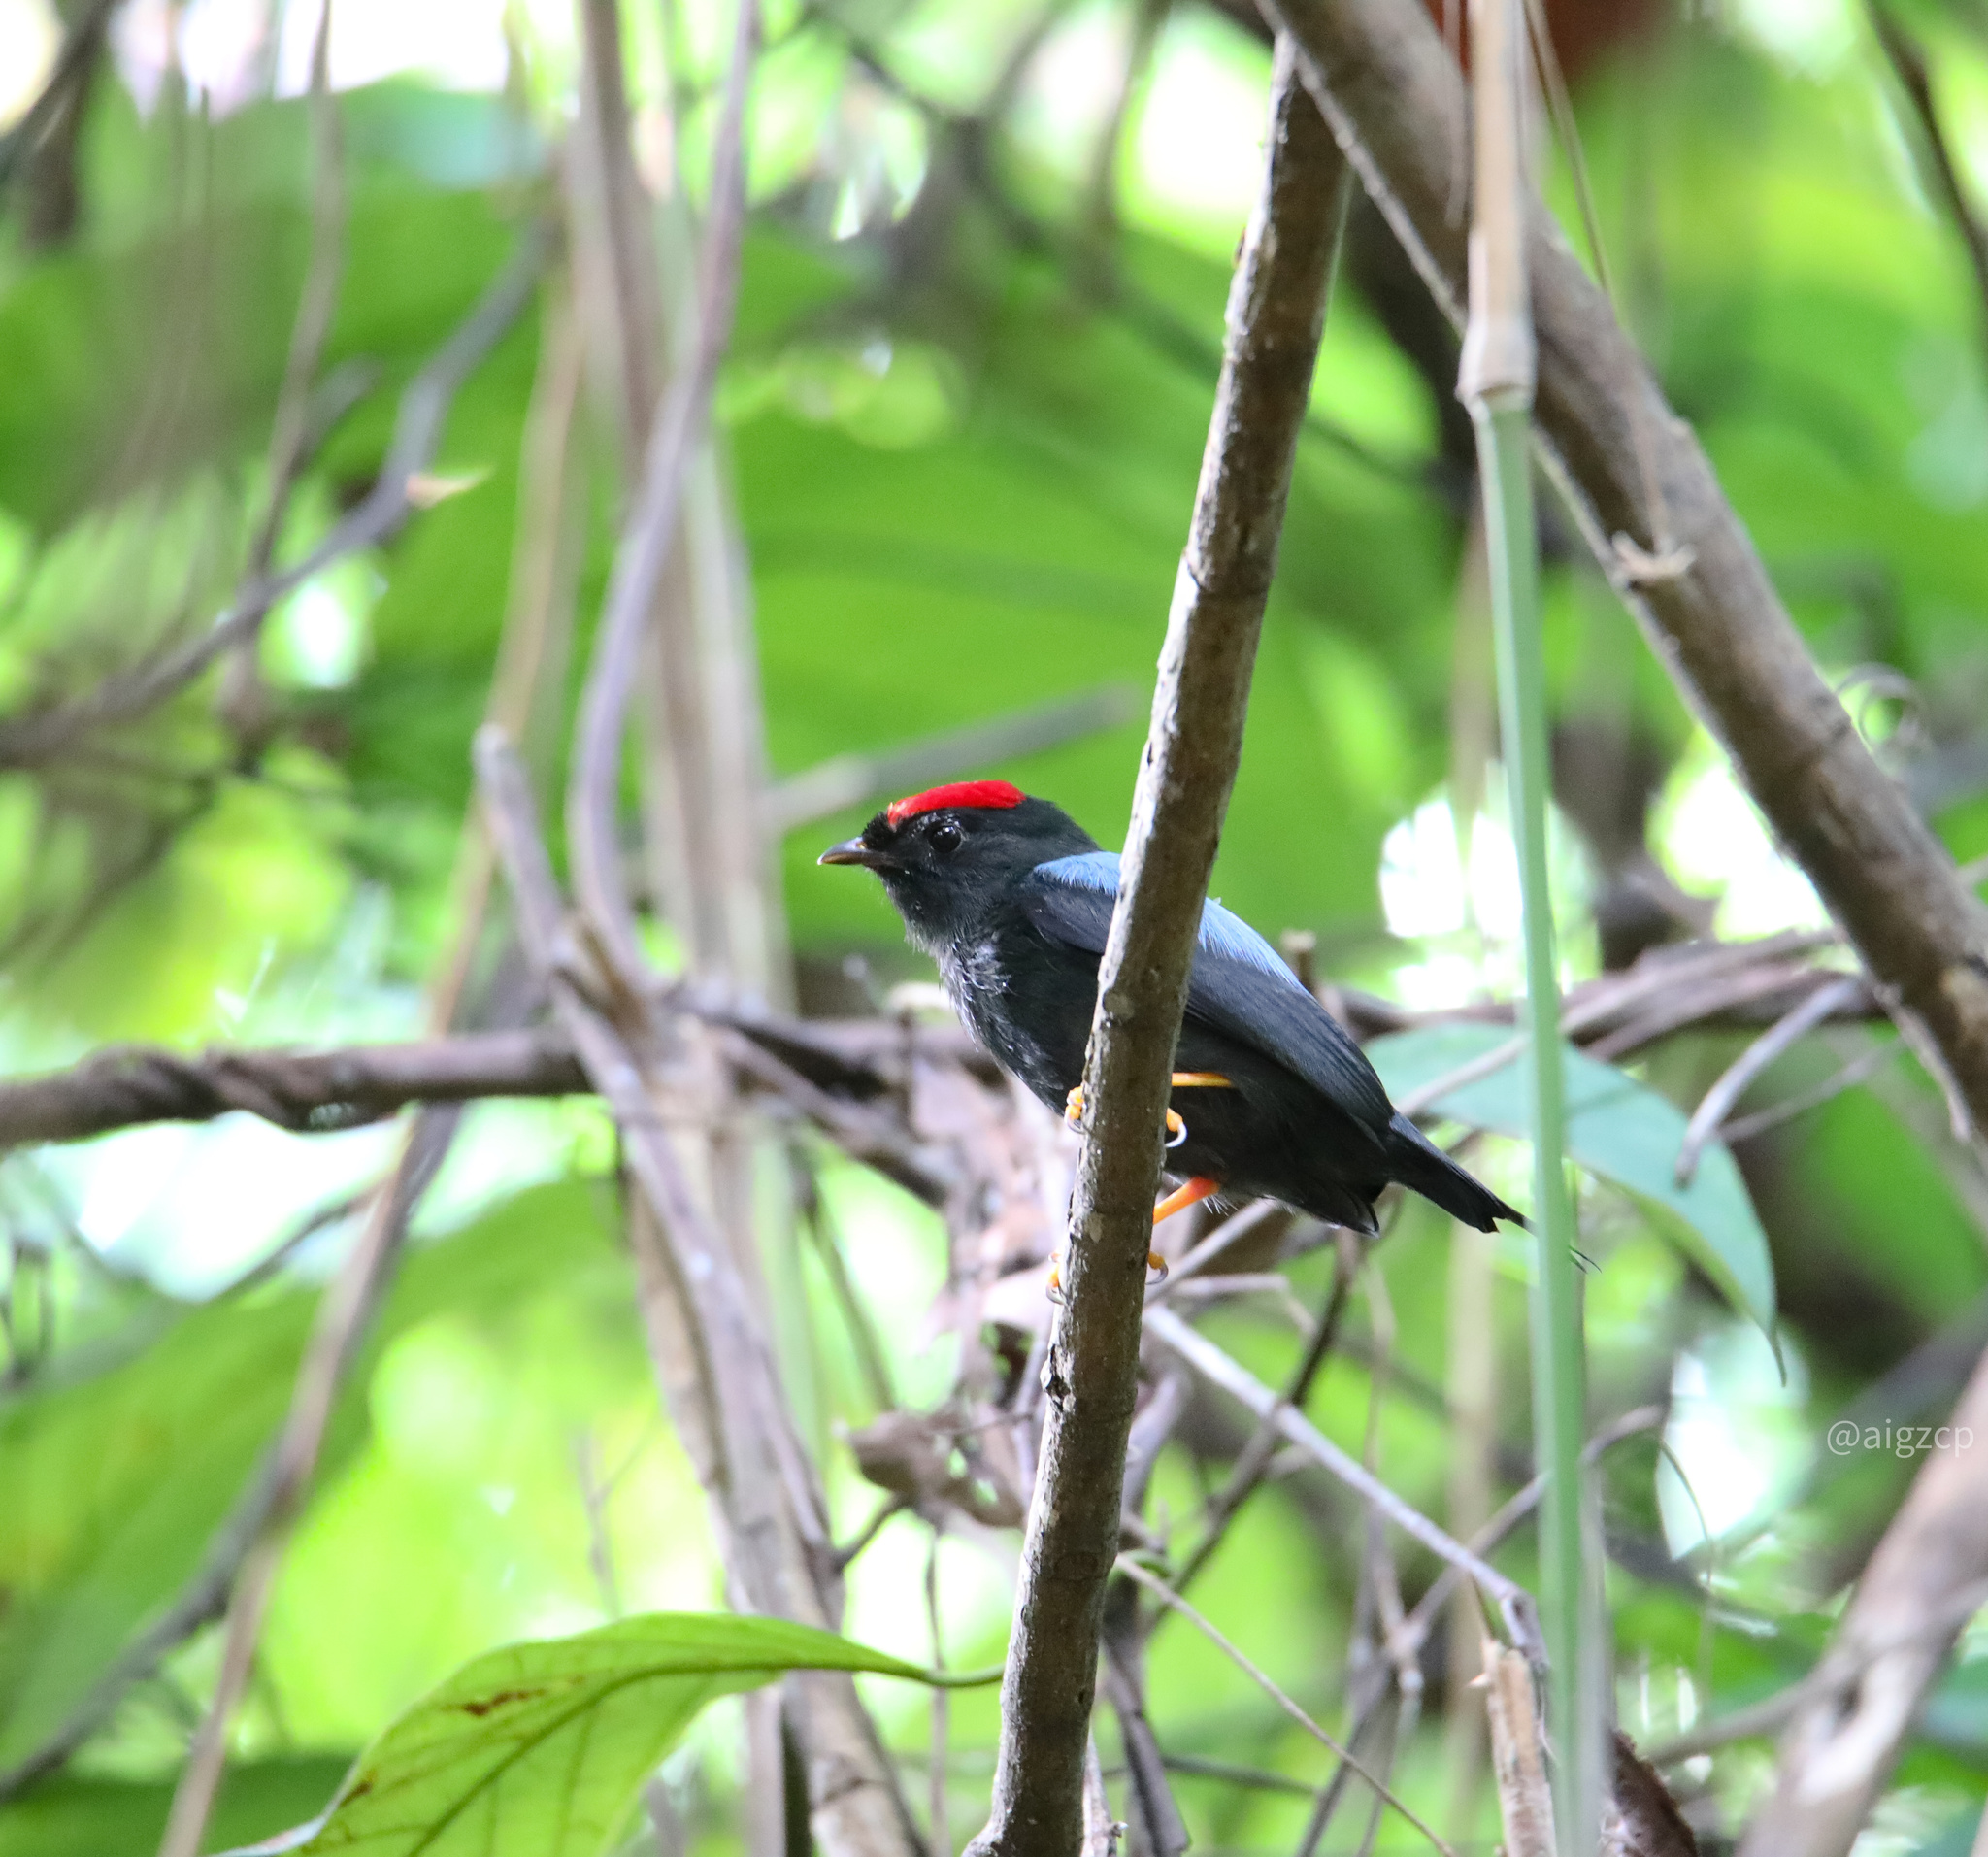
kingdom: Animalia
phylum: Chordata
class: Aves
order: Passeriformes
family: Pipridae
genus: Chiroxiphia
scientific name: Chiroxiphia lanceolata
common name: Lance-tailed manakin
